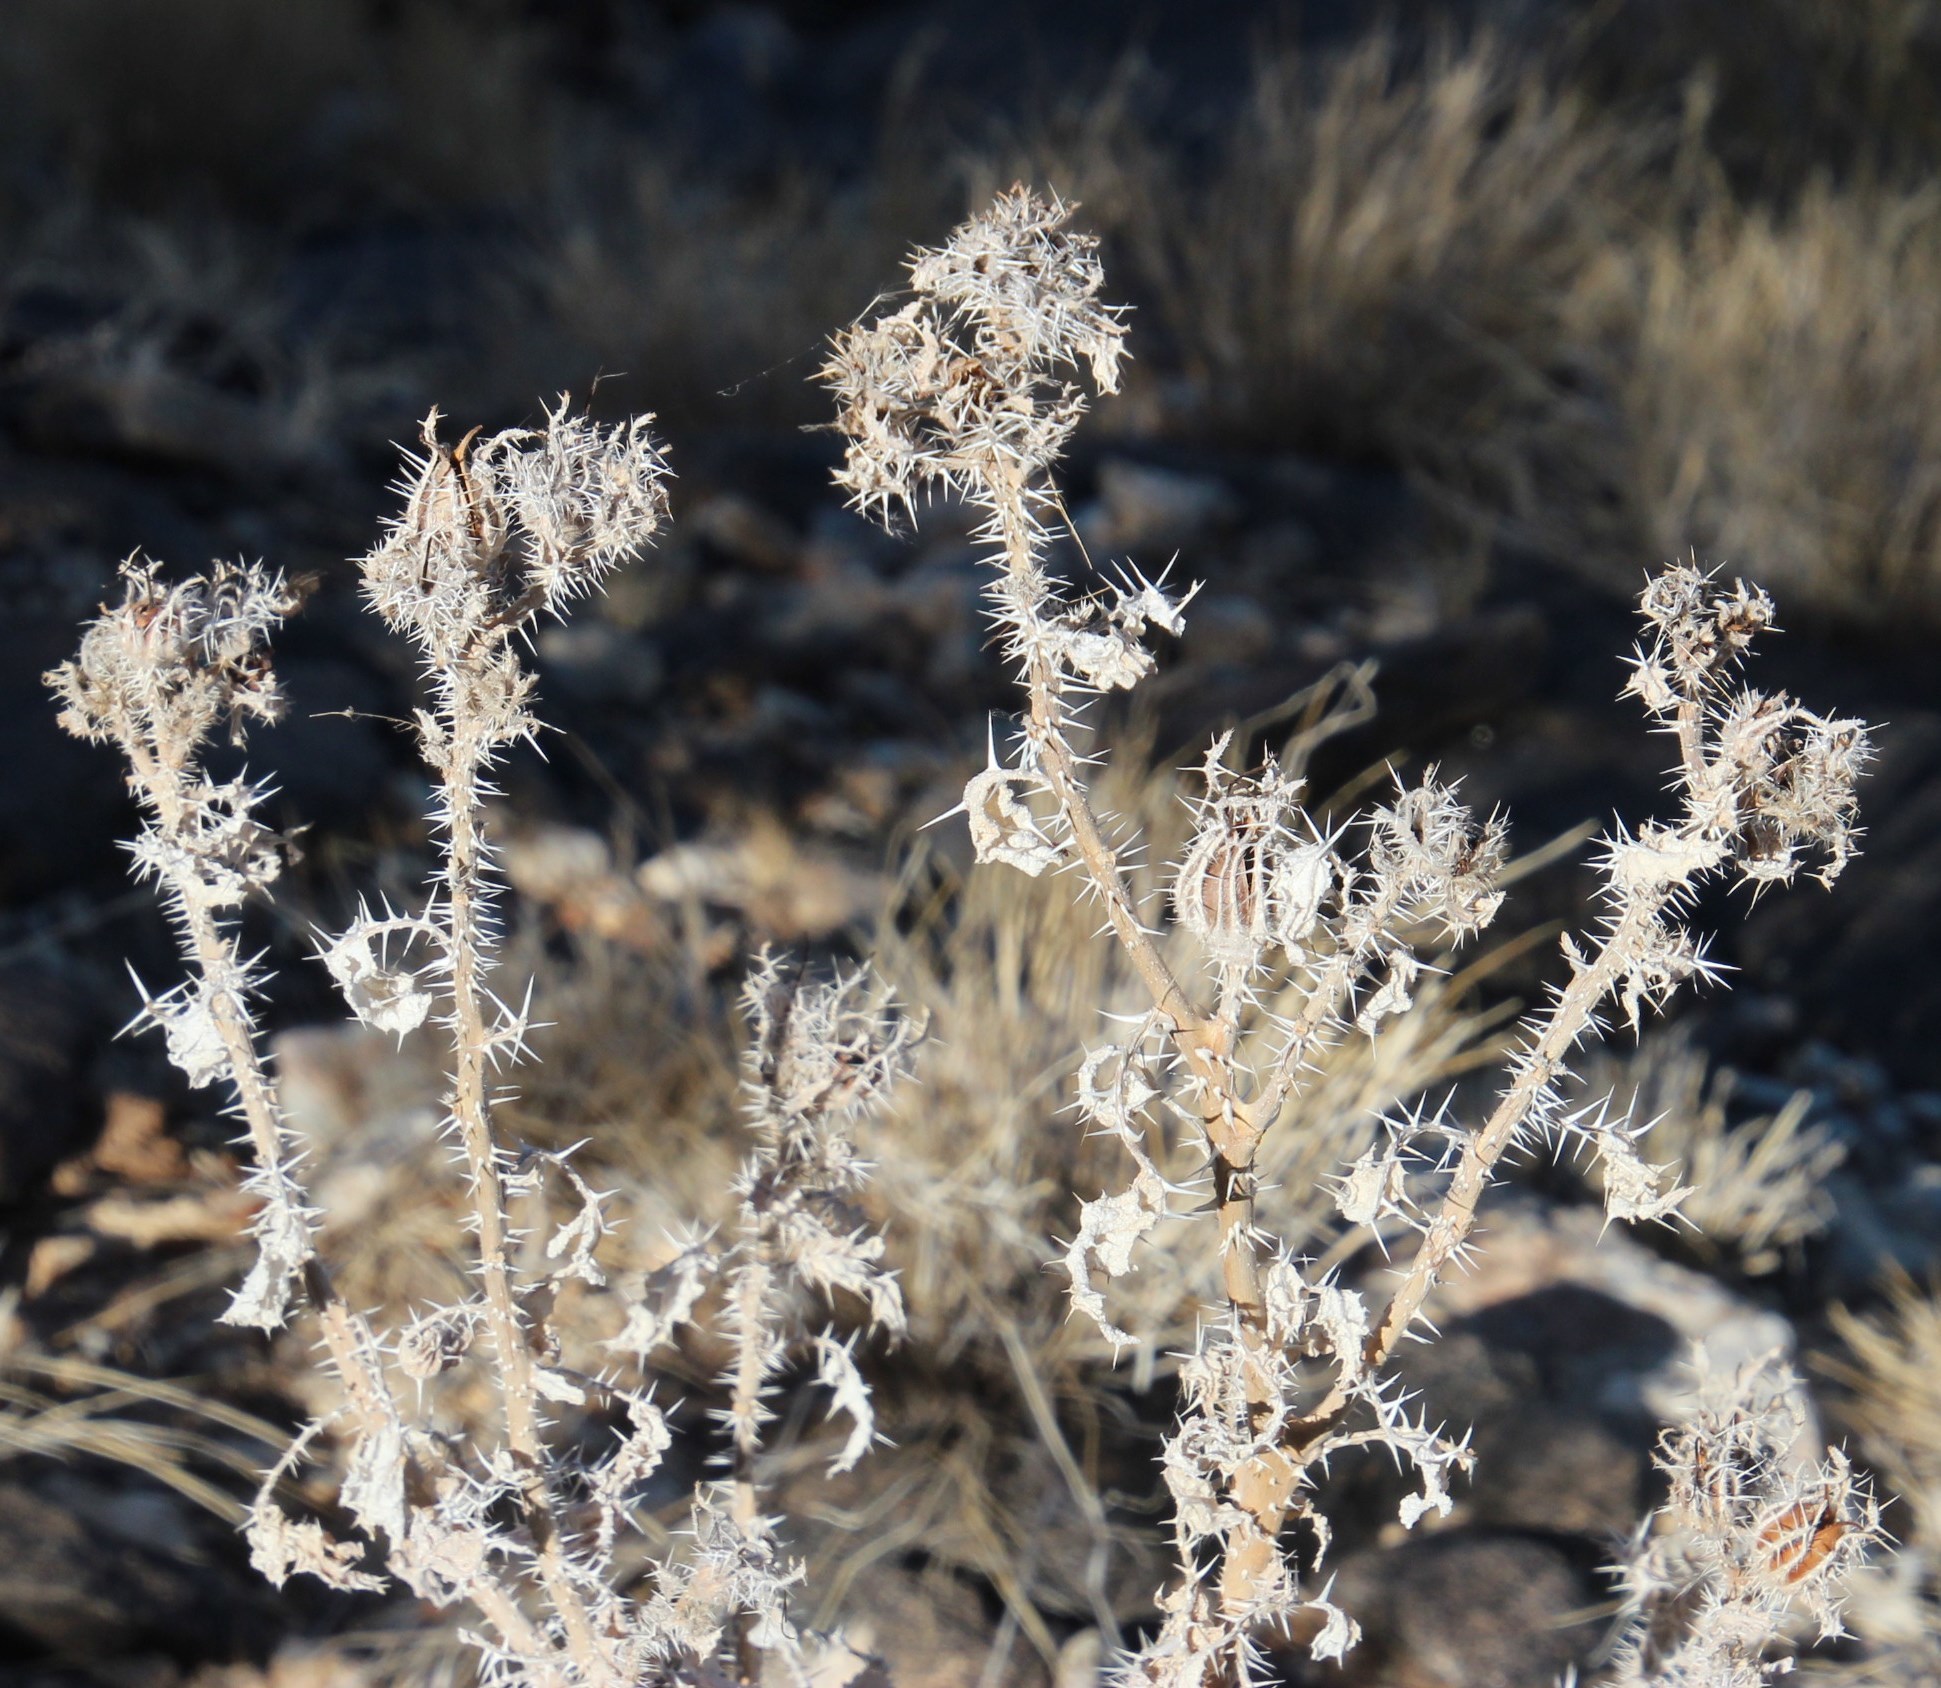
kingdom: Plantae
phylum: Tracheophyta
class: Magnoliopsida
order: Boraginales
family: Boraginaceae
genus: Codon
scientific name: Codon royenii
